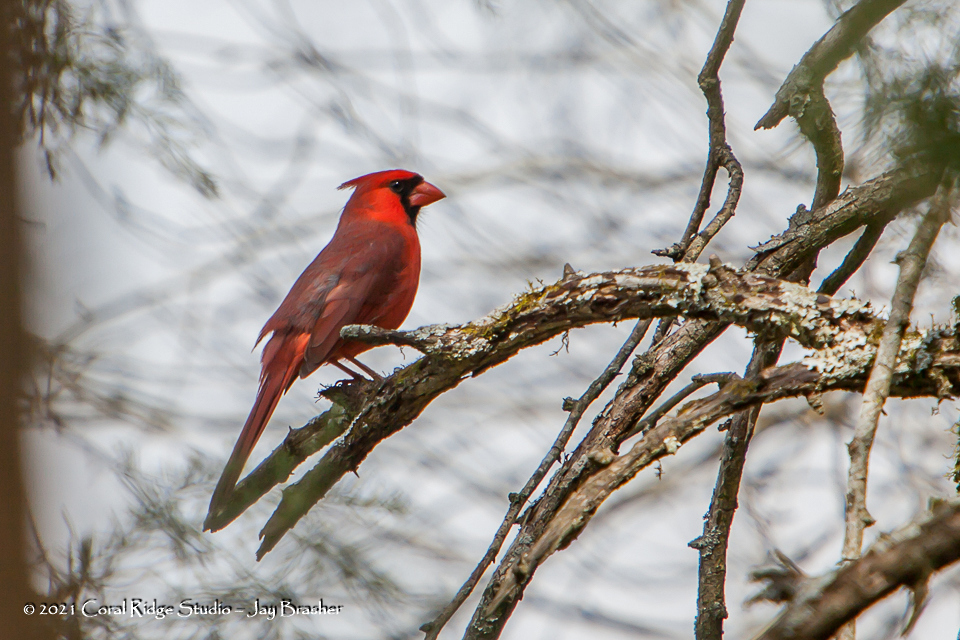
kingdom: Animalia
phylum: Chordata
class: Aves
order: Passeriformes
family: Cardinalidae
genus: Cardinalis
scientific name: Cardinalis cardinalis
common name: Northern cardinal
